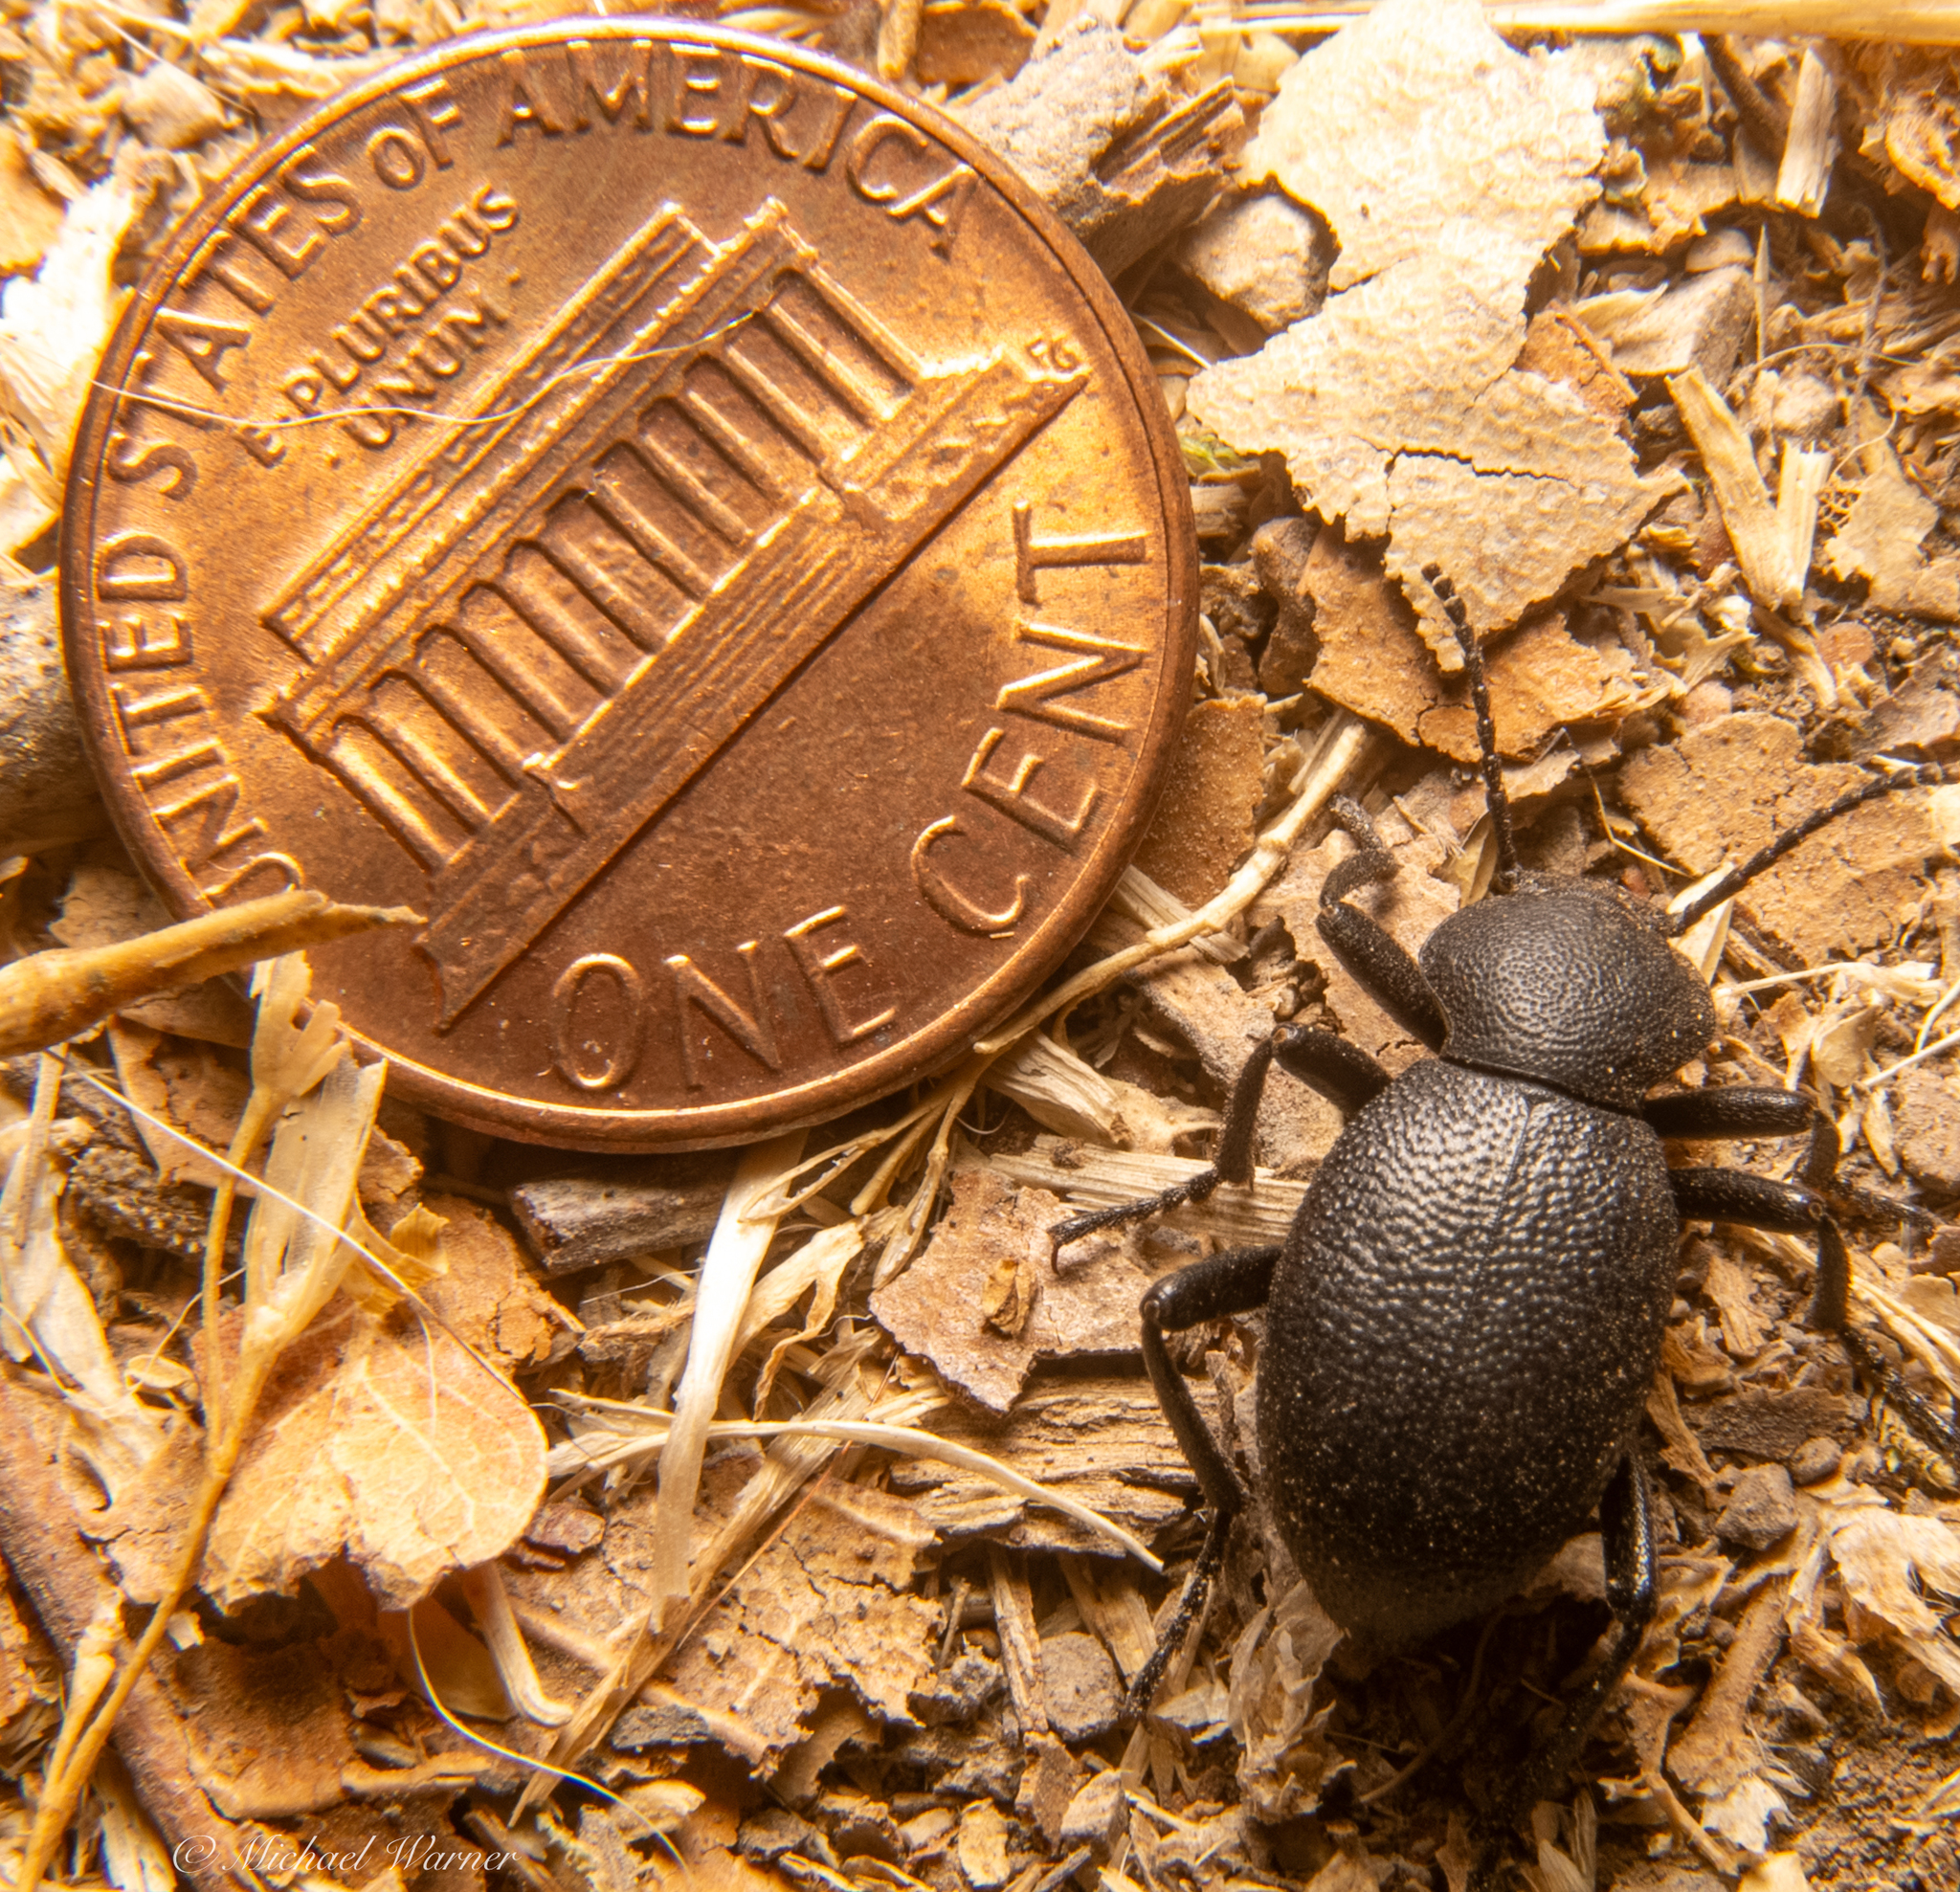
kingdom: Animalia
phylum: Arthropoda
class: Insecta
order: Coleoptera
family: Tenebrionidae
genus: Eleodes
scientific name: Eleodes cordata
